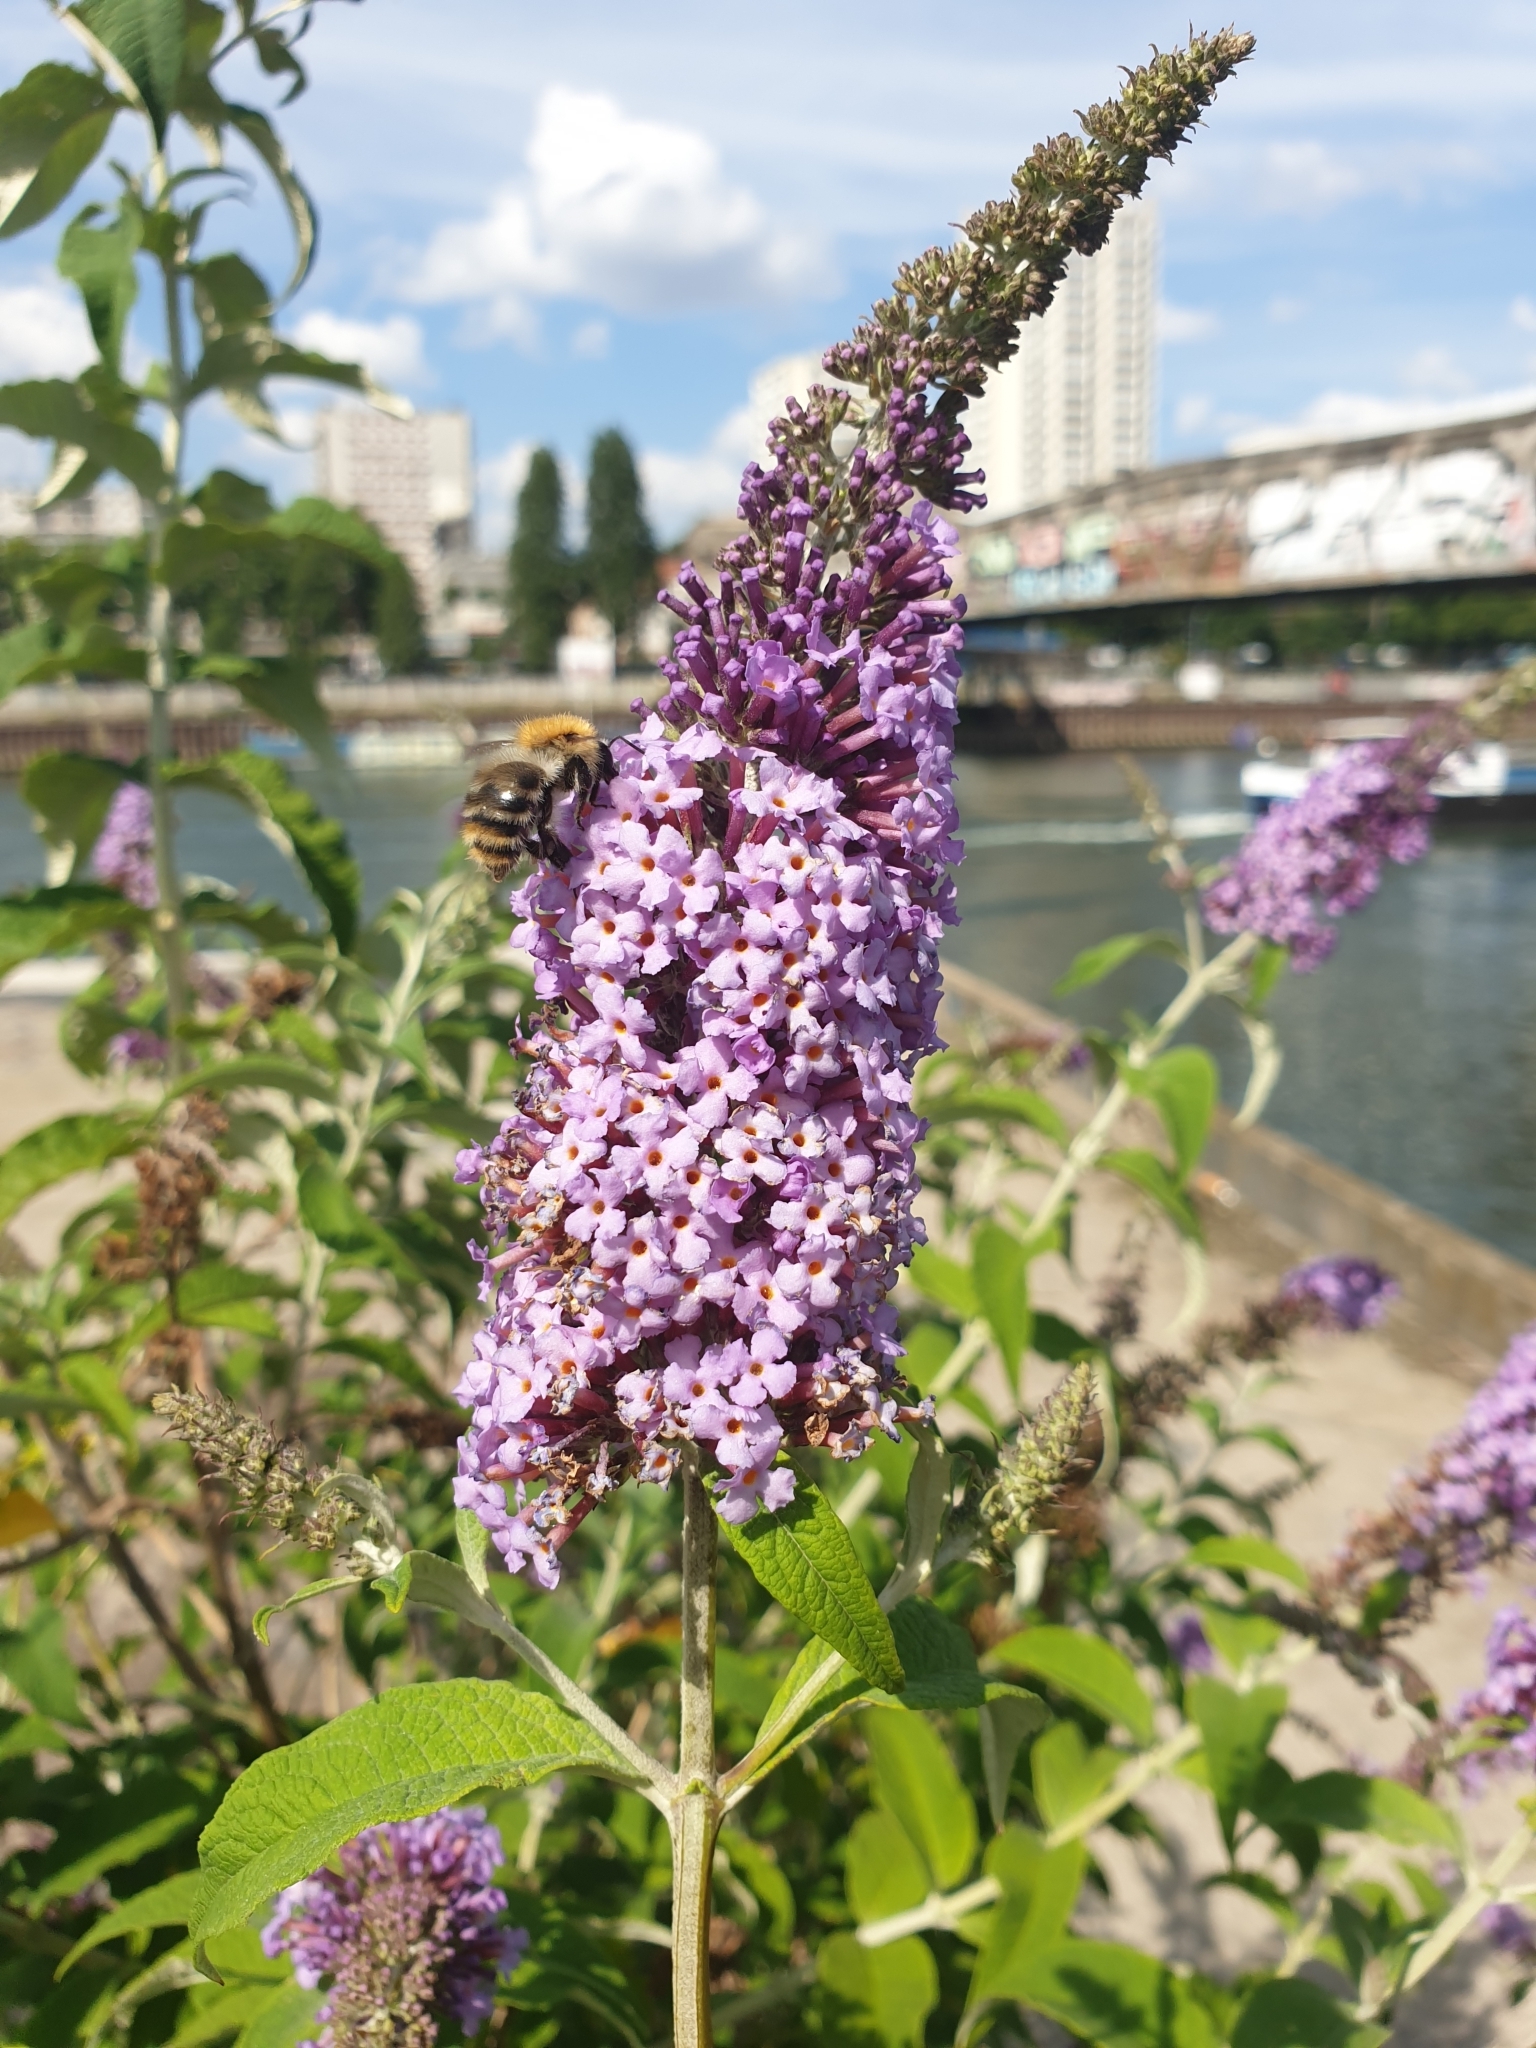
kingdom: Plantae
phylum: Tracheophyta
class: Magnoliopsida
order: Lamiales
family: Scrophulariaceae
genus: Buddleja
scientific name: Buddleja davidii
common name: Butterfly-bush
